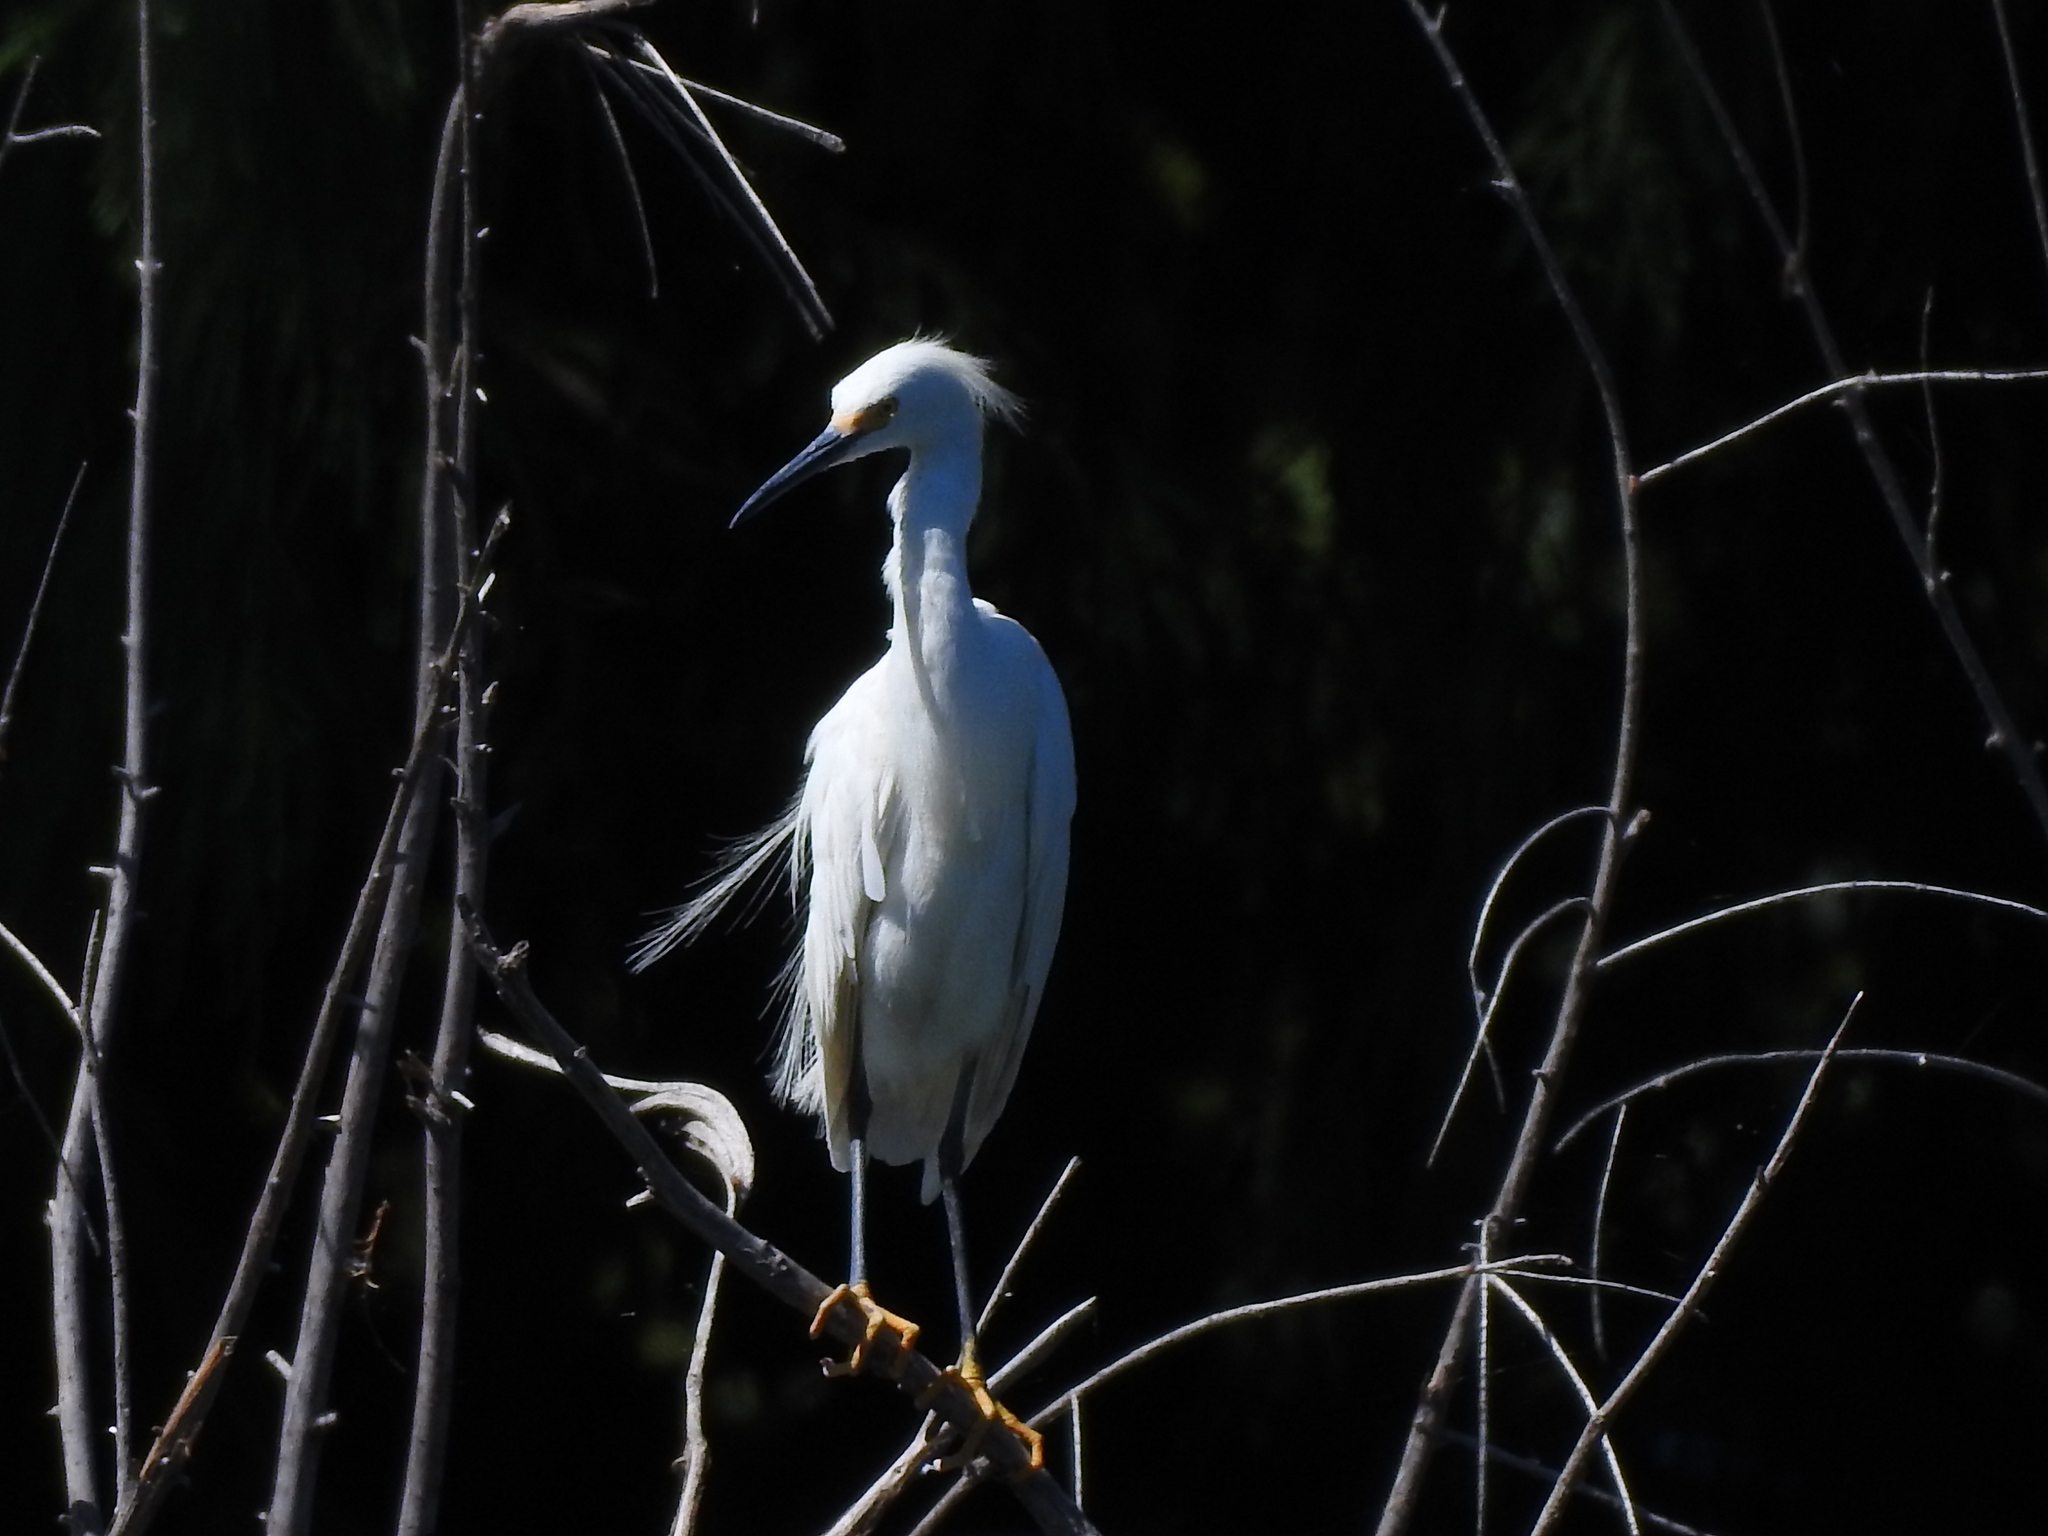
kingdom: Animalia
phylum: Chordata
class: Aves
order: Pelecaniformes
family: Ardeidae
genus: Egretta
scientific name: Egretta thula
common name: Snowy egret
